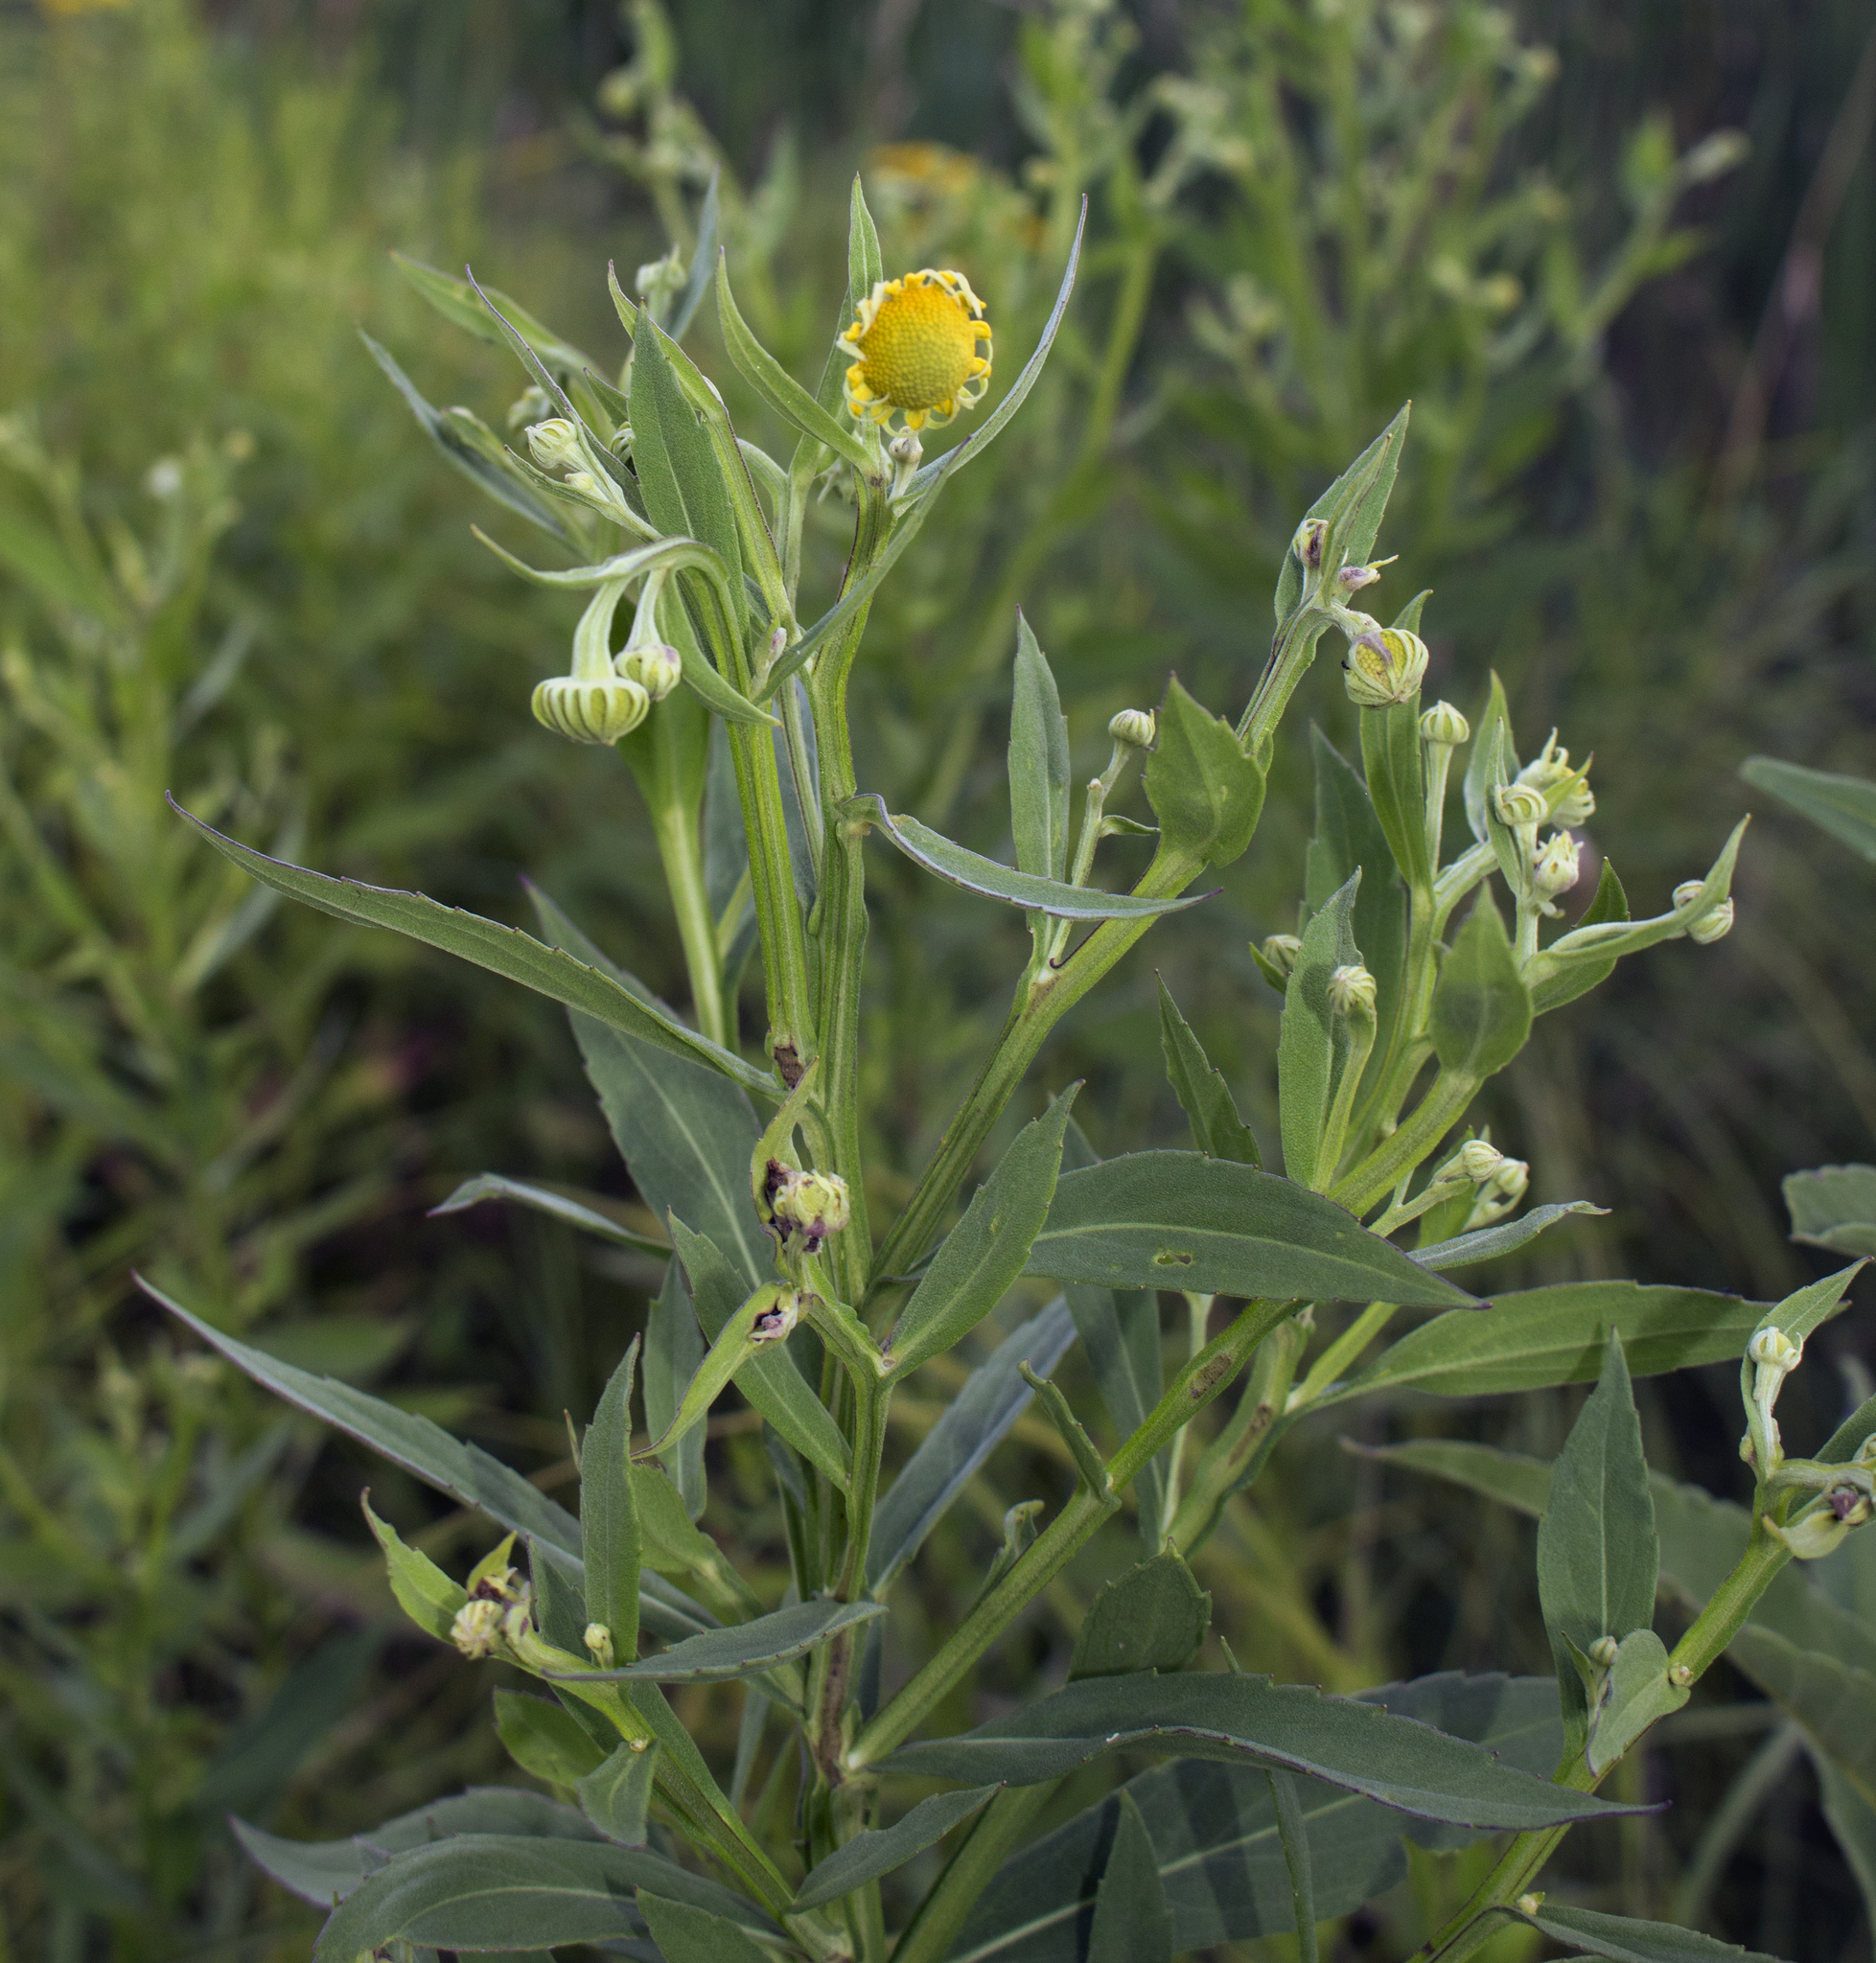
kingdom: Plantae
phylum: Tracheophyta
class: Magnoliopsida
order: Asterales
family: Asteraceae
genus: Helenium
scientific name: Helenium autumnale
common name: Sneezeweed
